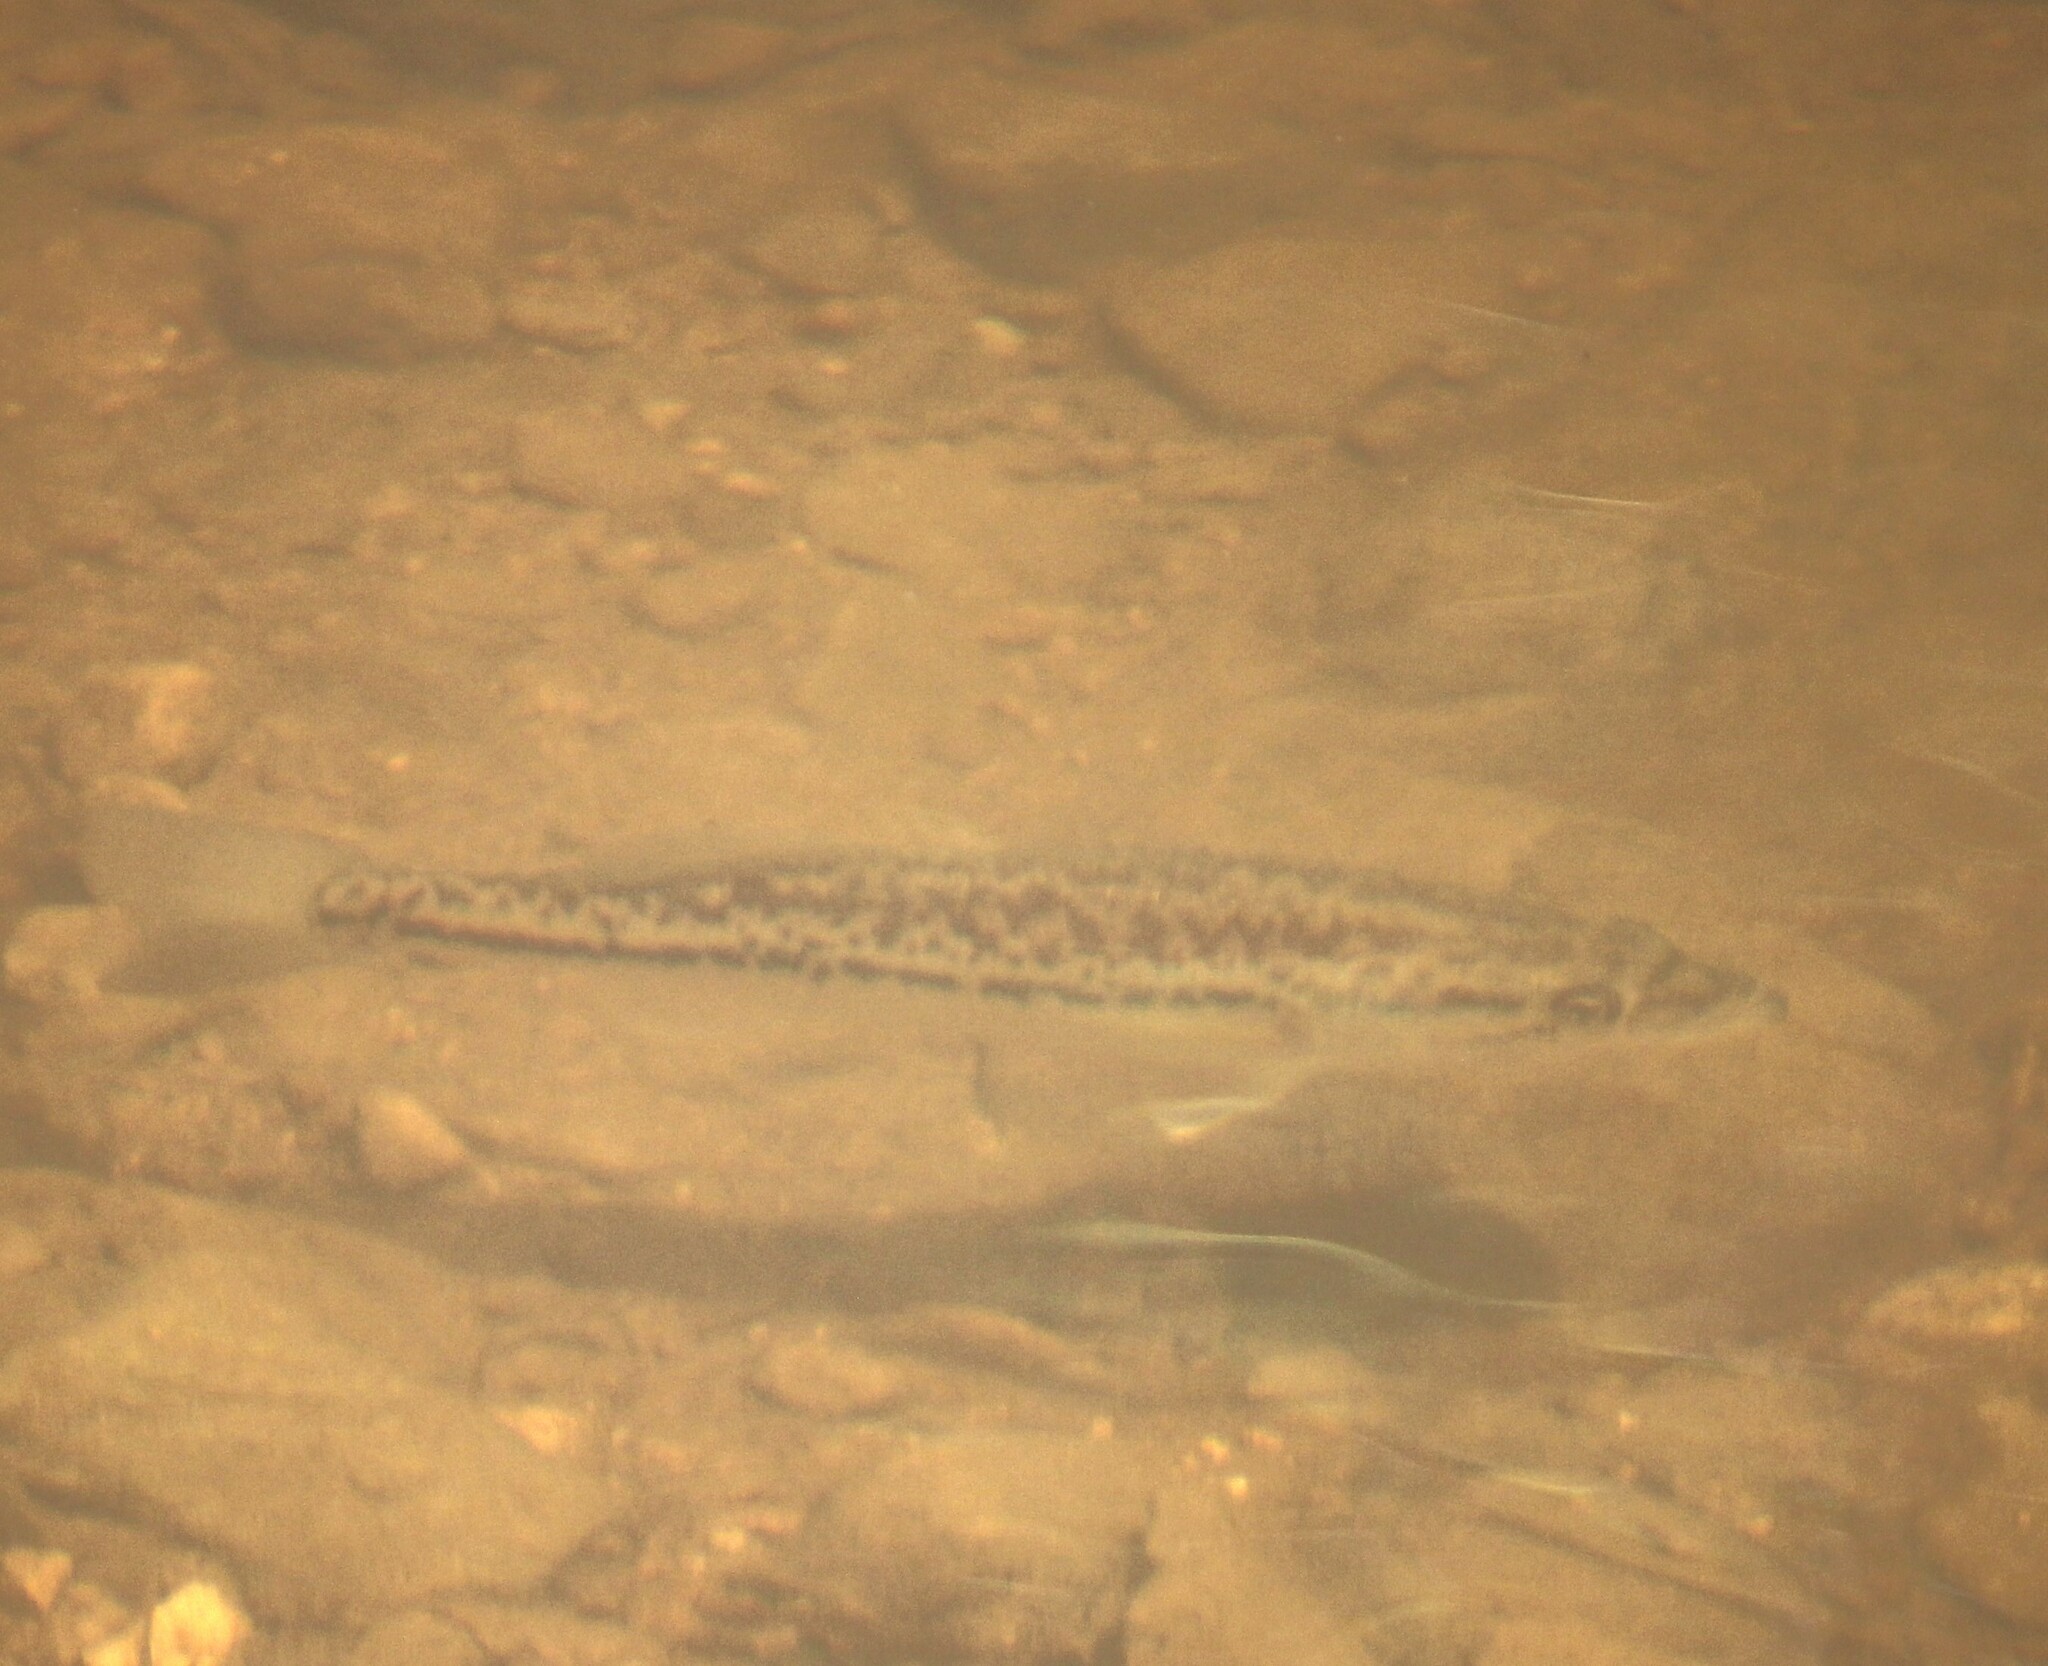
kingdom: Animalia
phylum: Chordata
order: Perciformes
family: Centrarchidae
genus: Micropterus
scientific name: Micropterus
